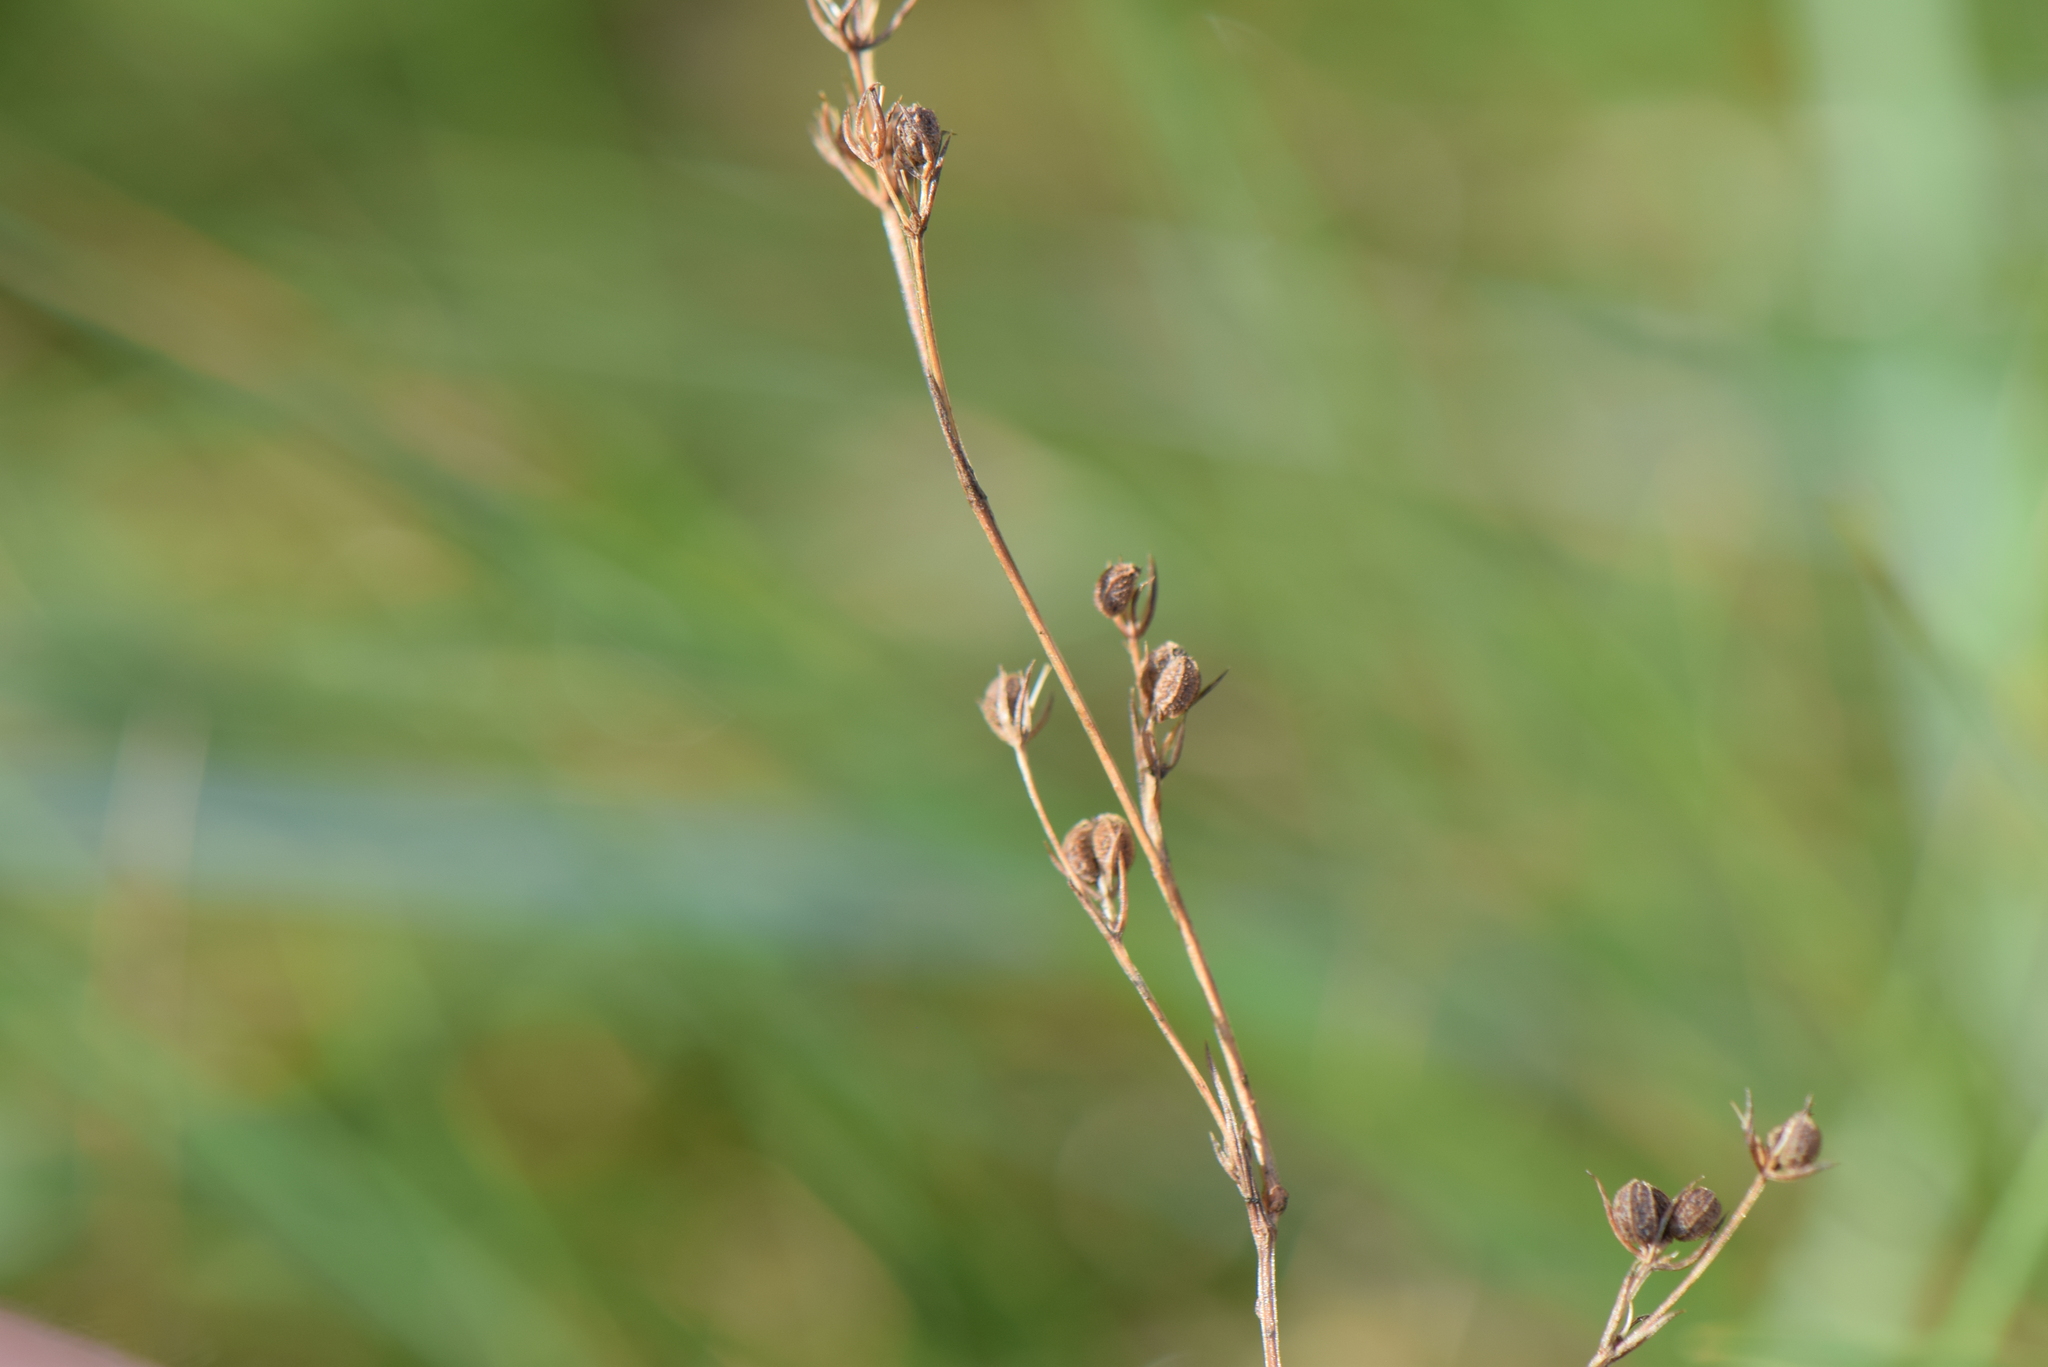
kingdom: Plantae
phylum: Tracheophyta
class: Magnoliopsida
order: Apiales
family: Apiaceae
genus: Bupleurum
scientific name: Bupleurum tenuissimum
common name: Slender hare's-ear
